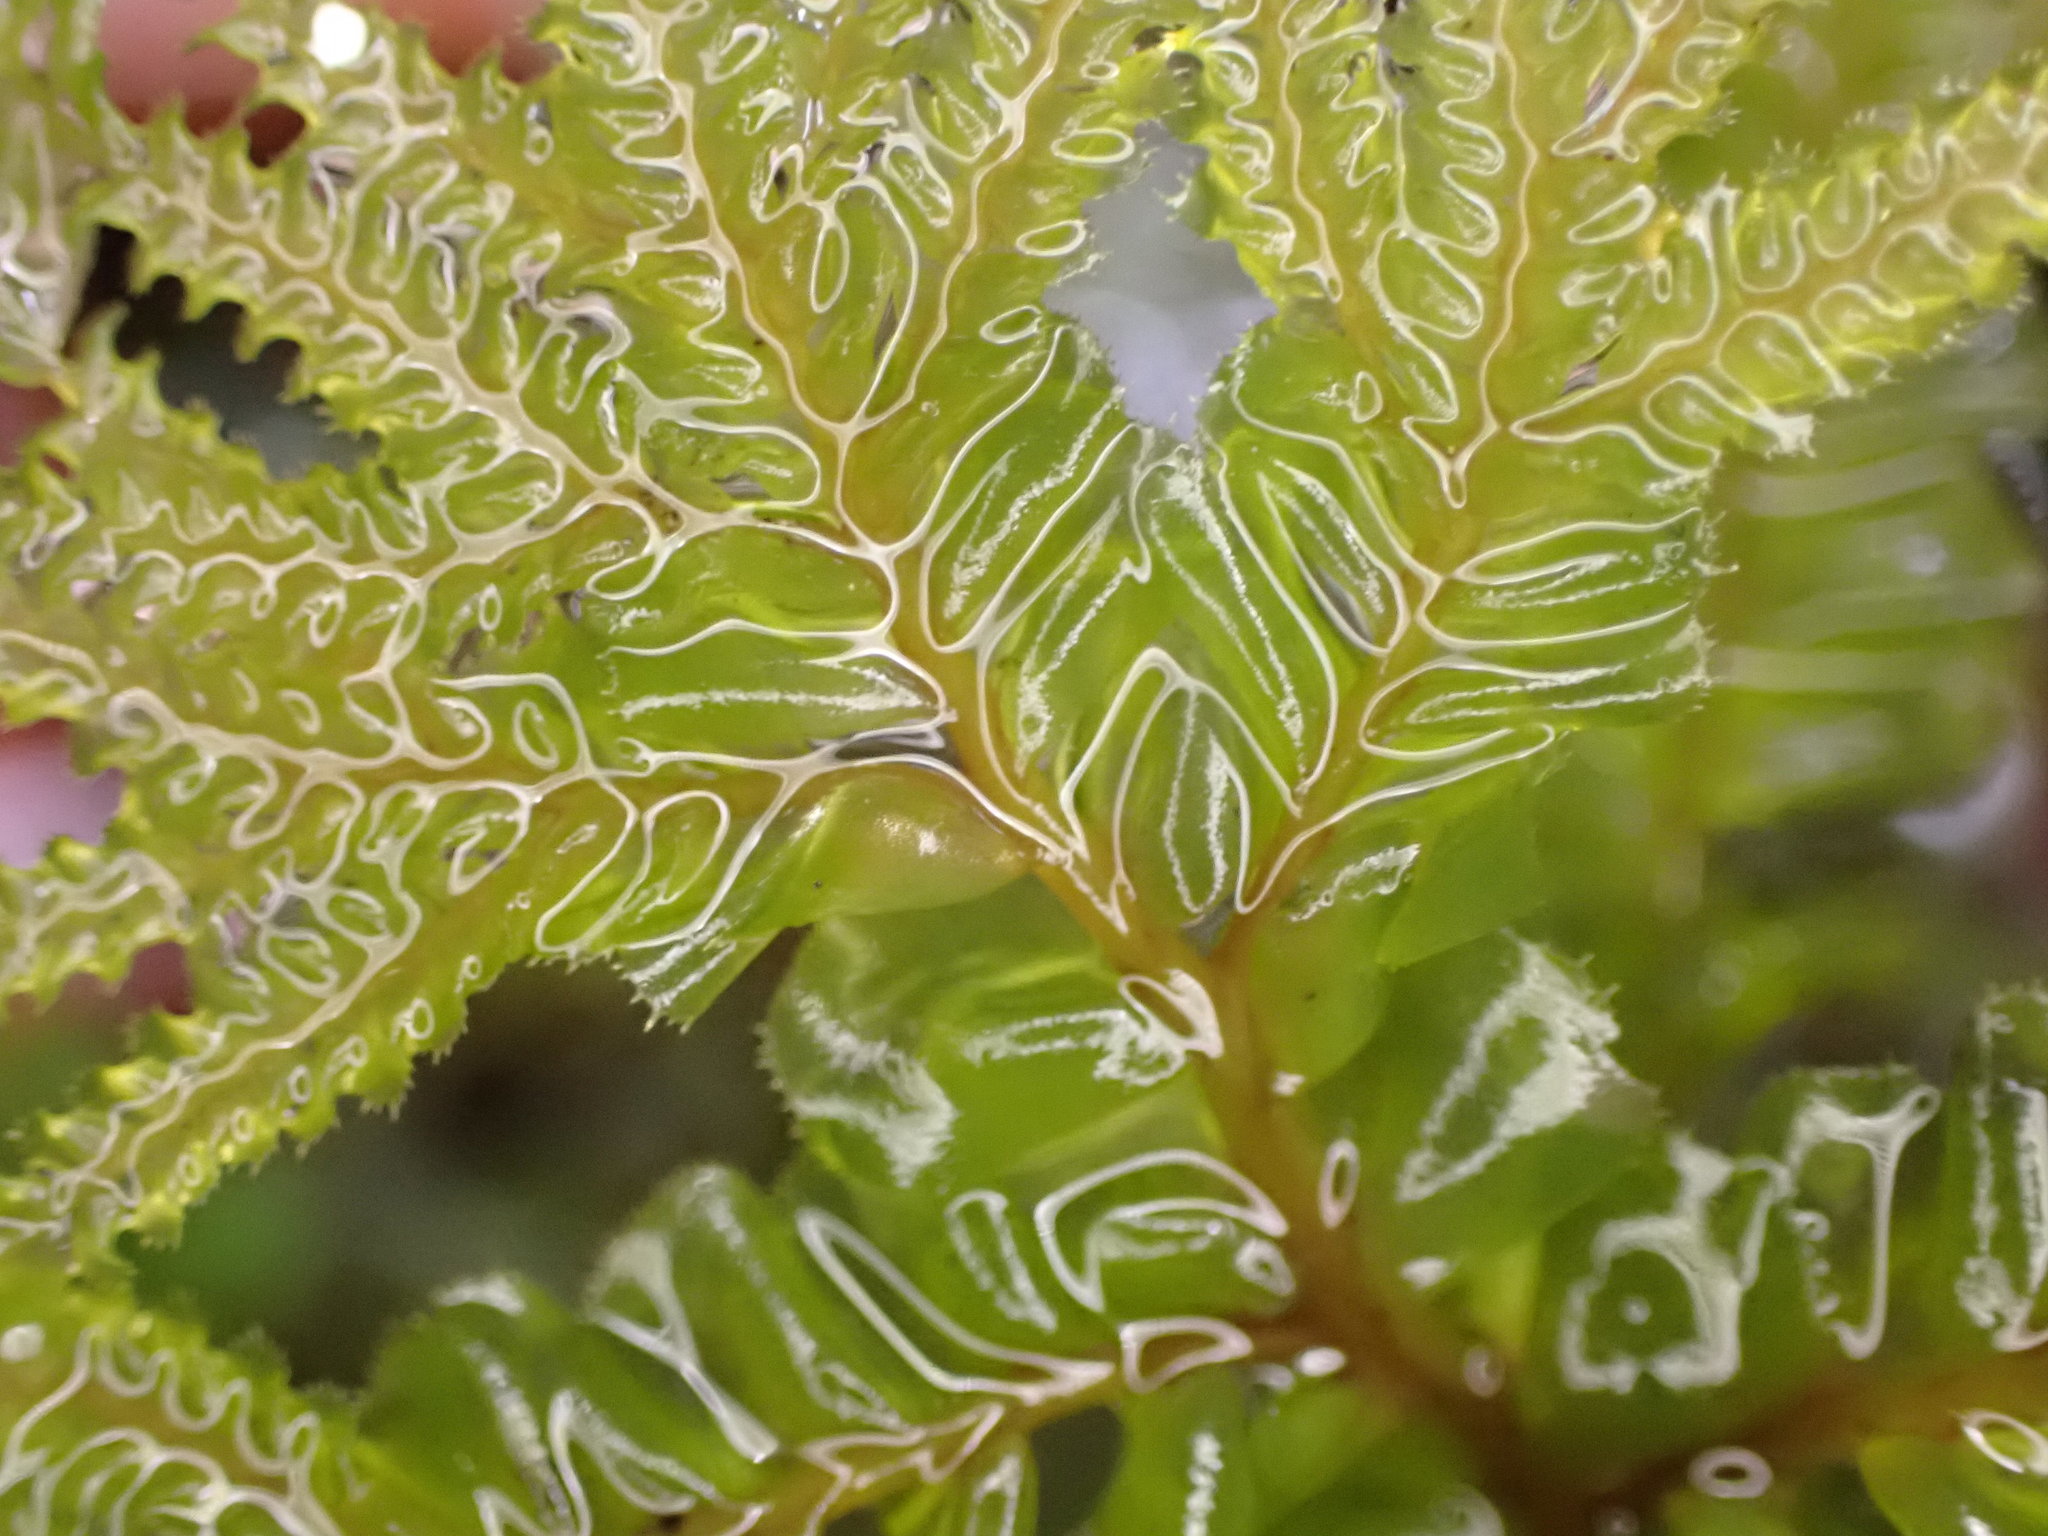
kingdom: Plantae
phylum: Marchantiophyta
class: Jungermanniopsida
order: Jungermanniales
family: Plagiochilaceae
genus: Plagiochila
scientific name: Plagiochila gigantea
